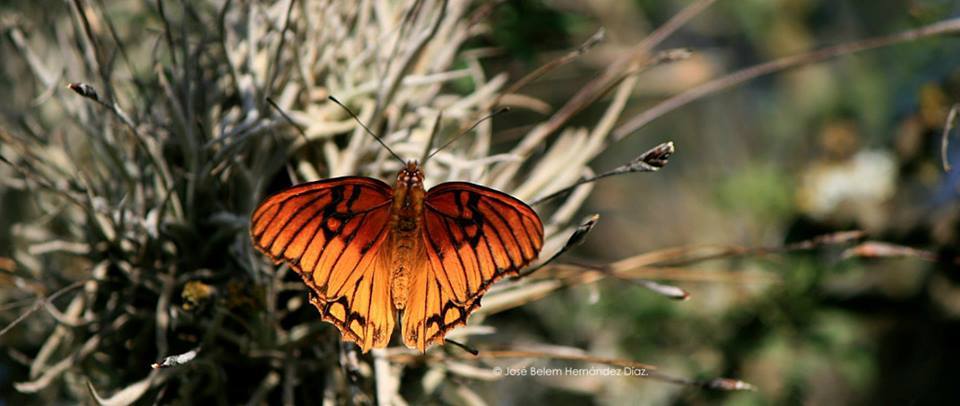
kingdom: Animalia
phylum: Arthropoda
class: Insecta
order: Lepidoptera
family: Nymphalidae
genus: Dione
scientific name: Dione moneta
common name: Mexican silverspot
